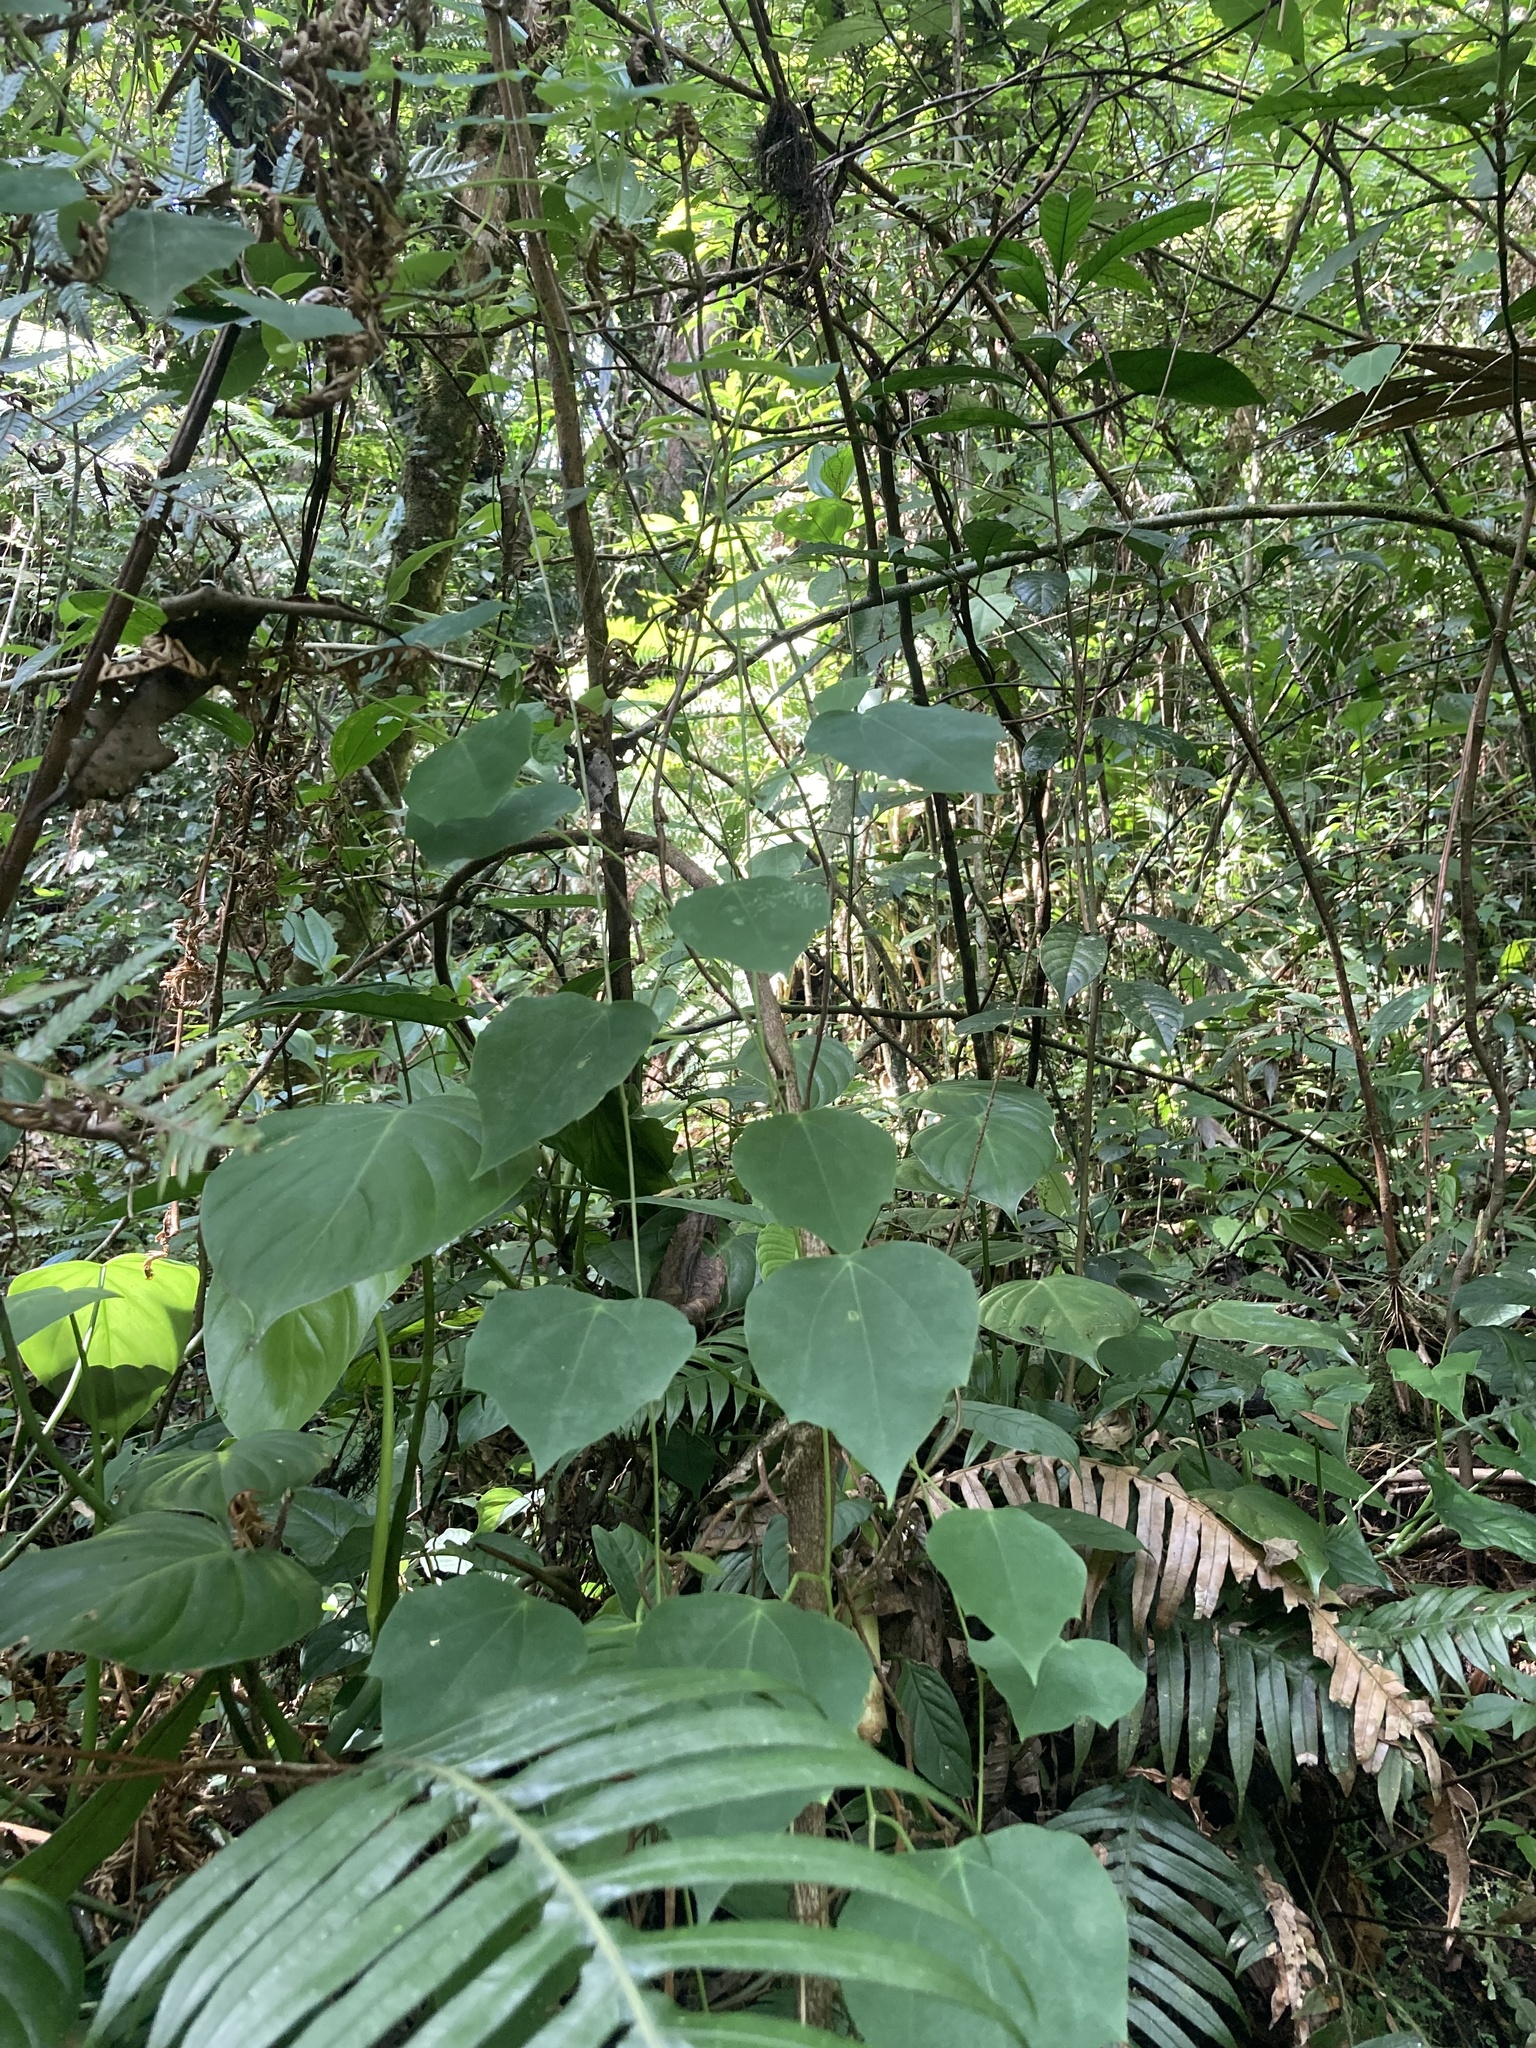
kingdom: Plantae
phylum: Tracheophyta
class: Magnoliopsida
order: Malpighiales
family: Passifloraceae
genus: Passiflora
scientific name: Passiflora membranacea
